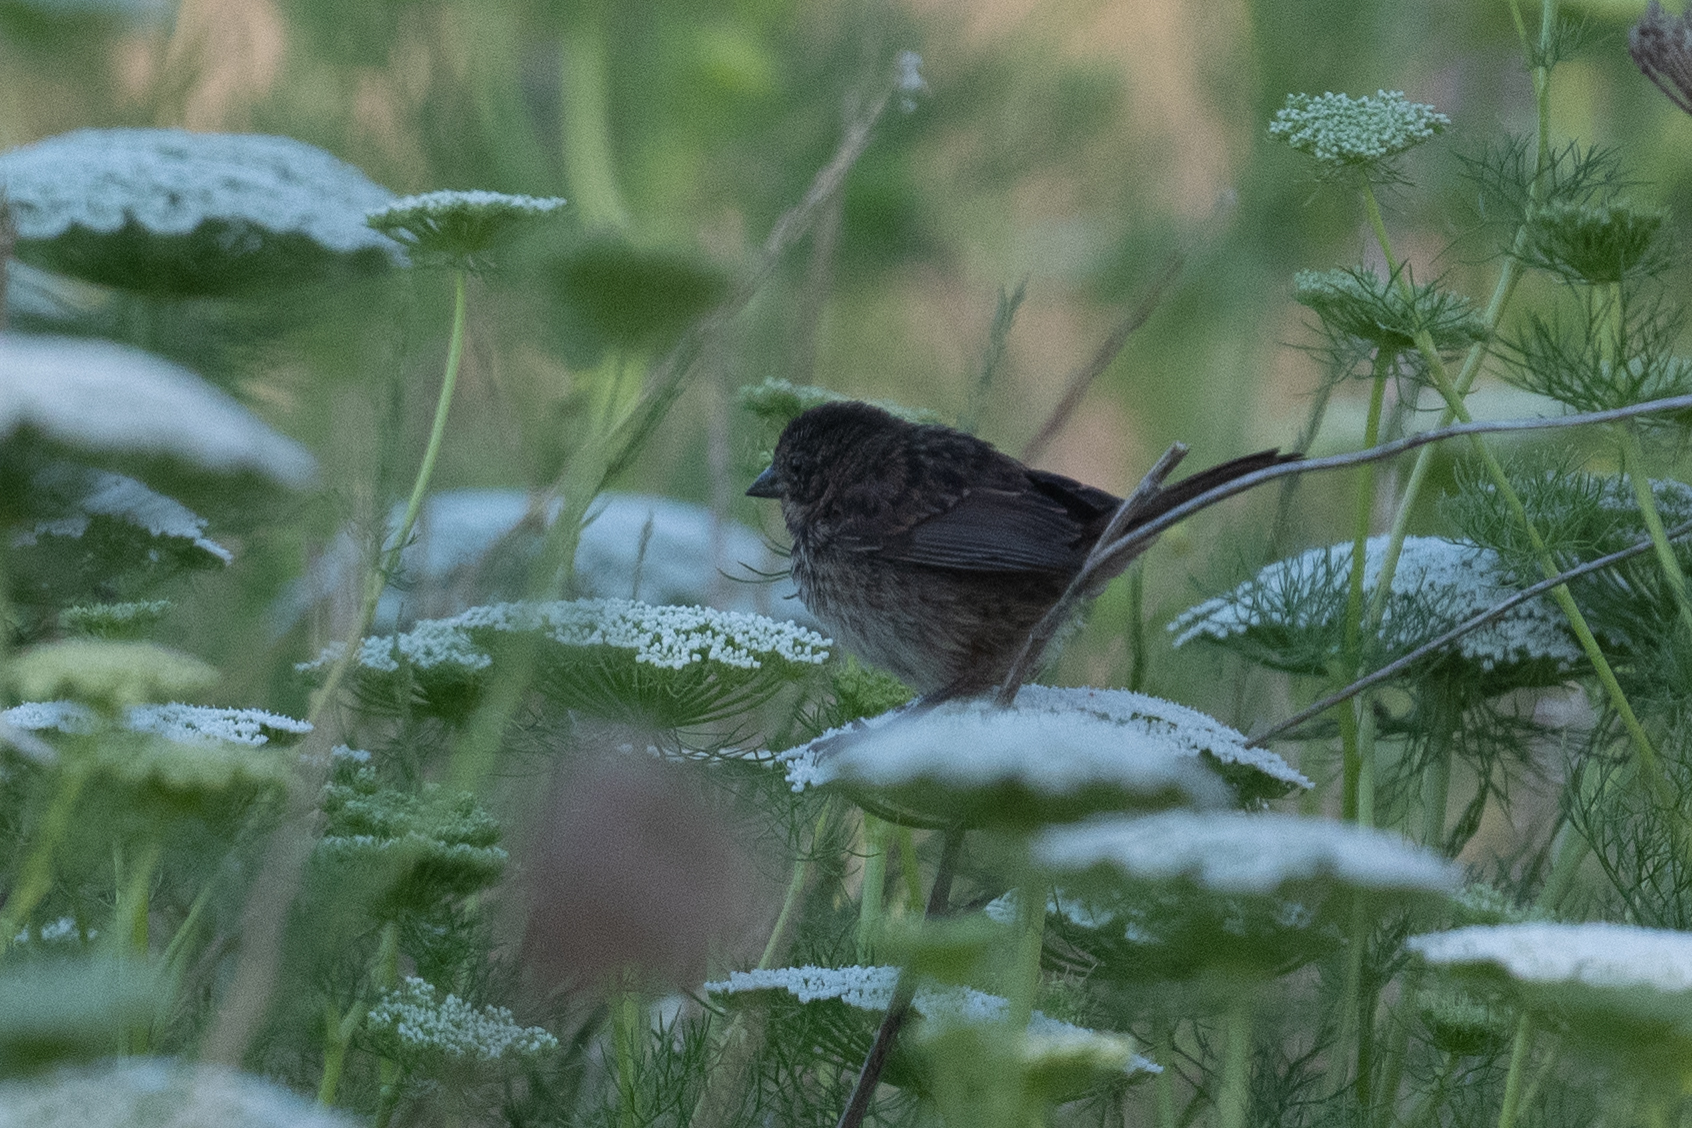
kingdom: Animalia
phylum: Chordata
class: Aves
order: Passeriformes
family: Passerellidae
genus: Melospiza
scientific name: Melospiza melodia
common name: Song sparrow
